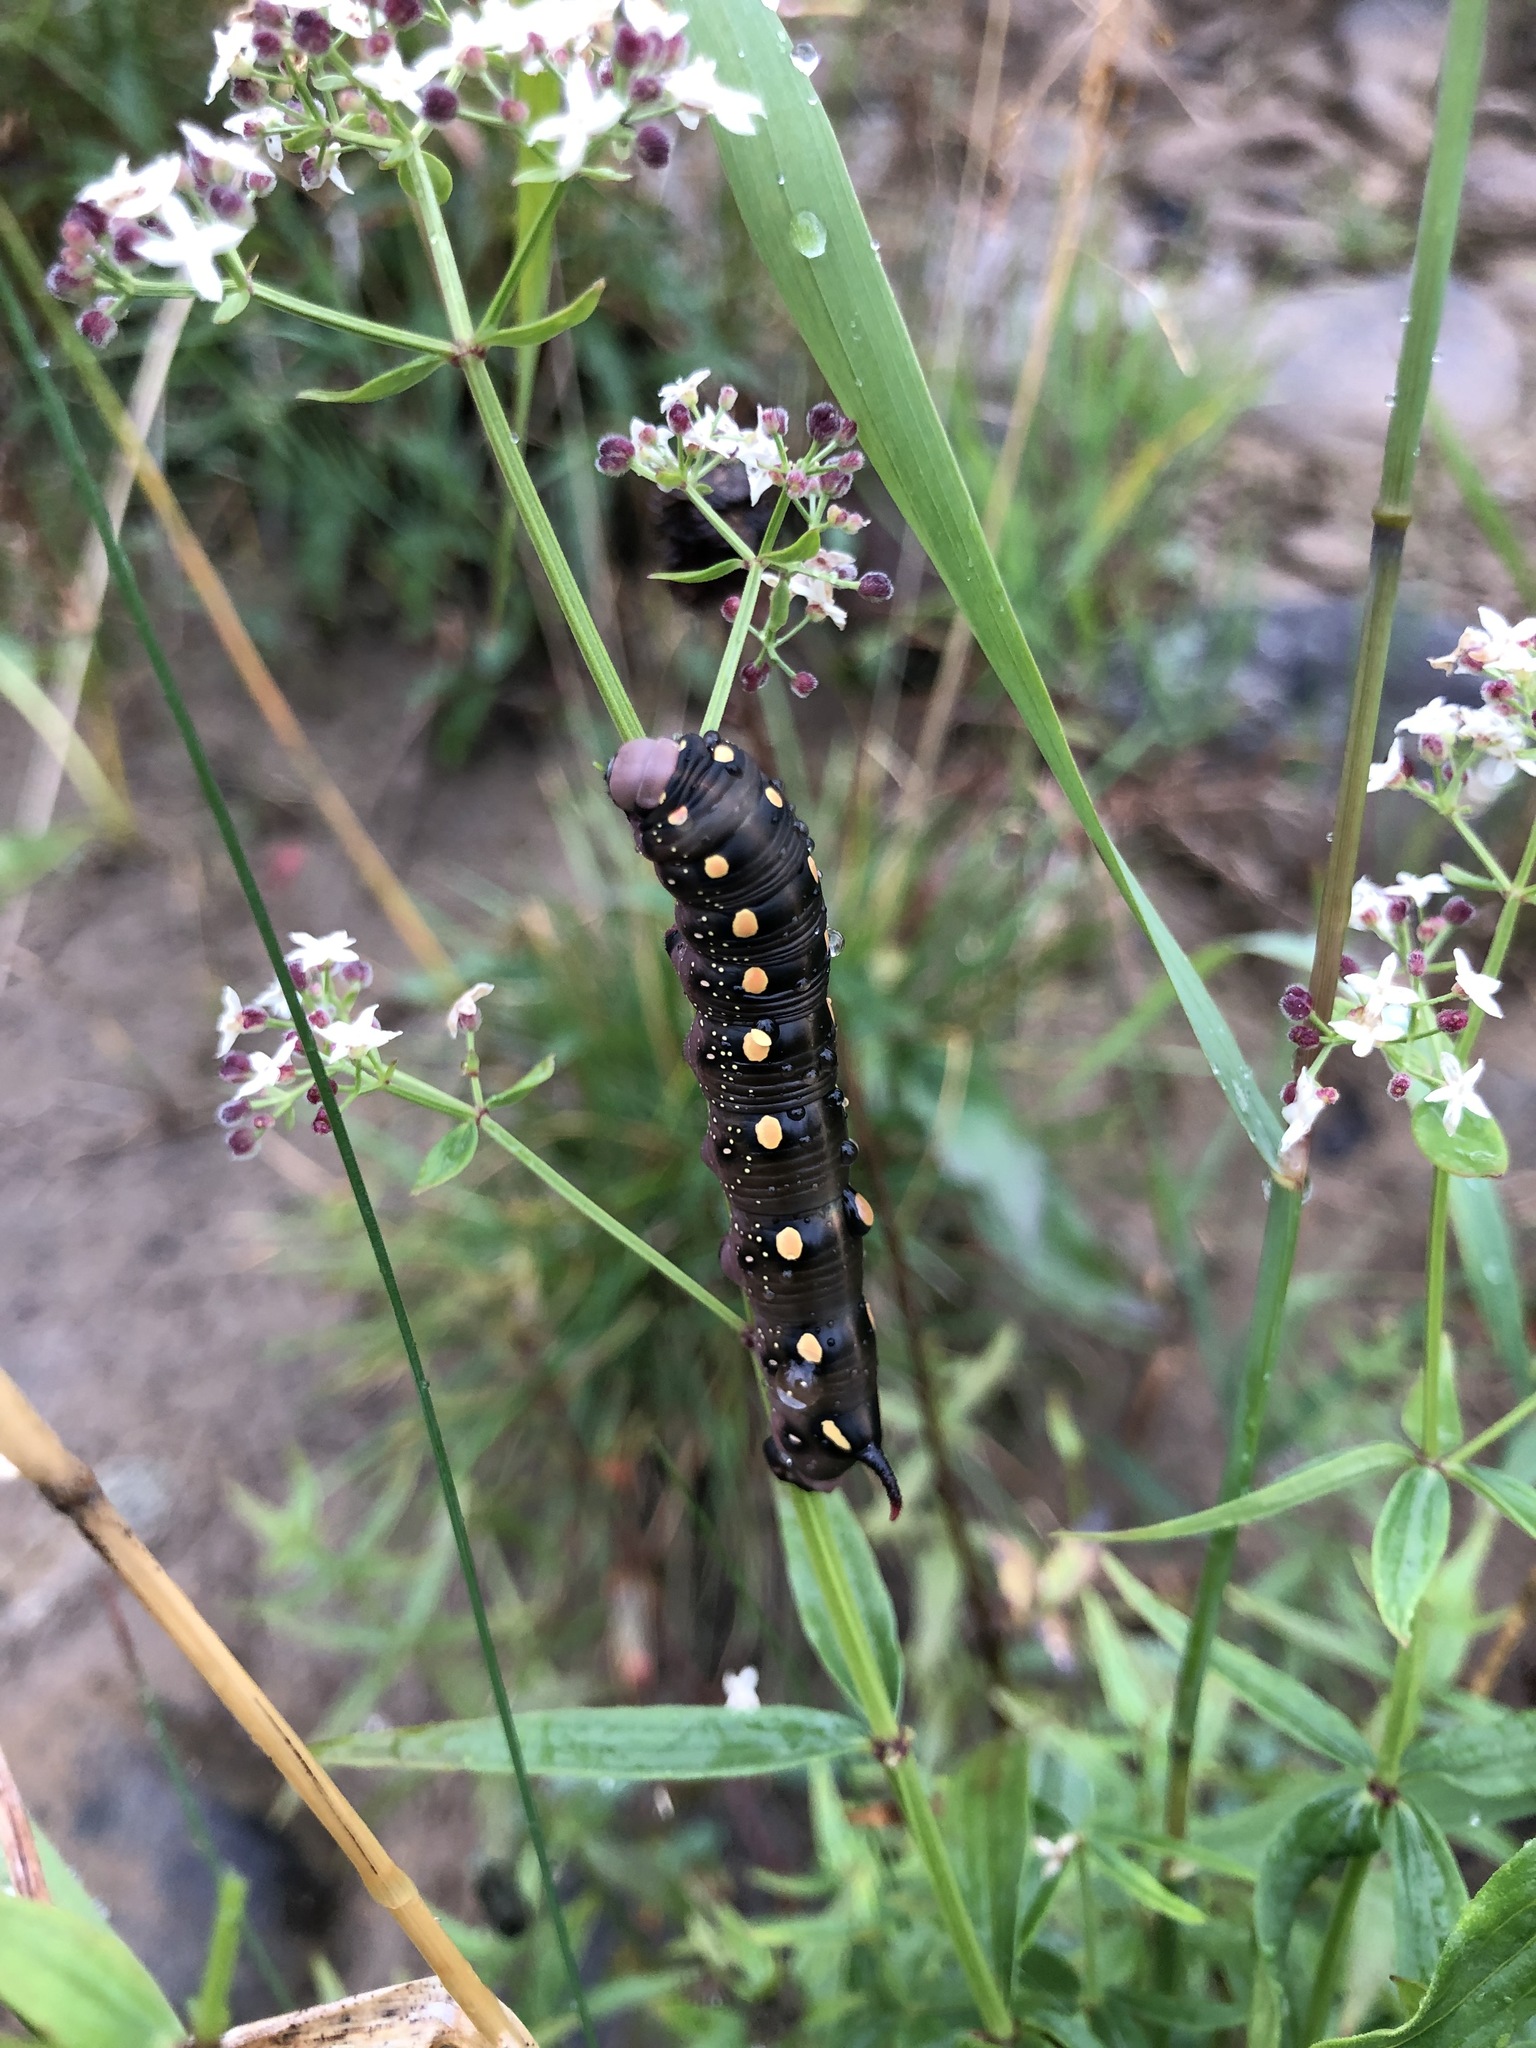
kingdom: Animalia
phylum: Arthropoda
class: Insecta
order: Lepidoptera
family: Sphingidae
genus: Hyles
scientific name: Hyles gallii
